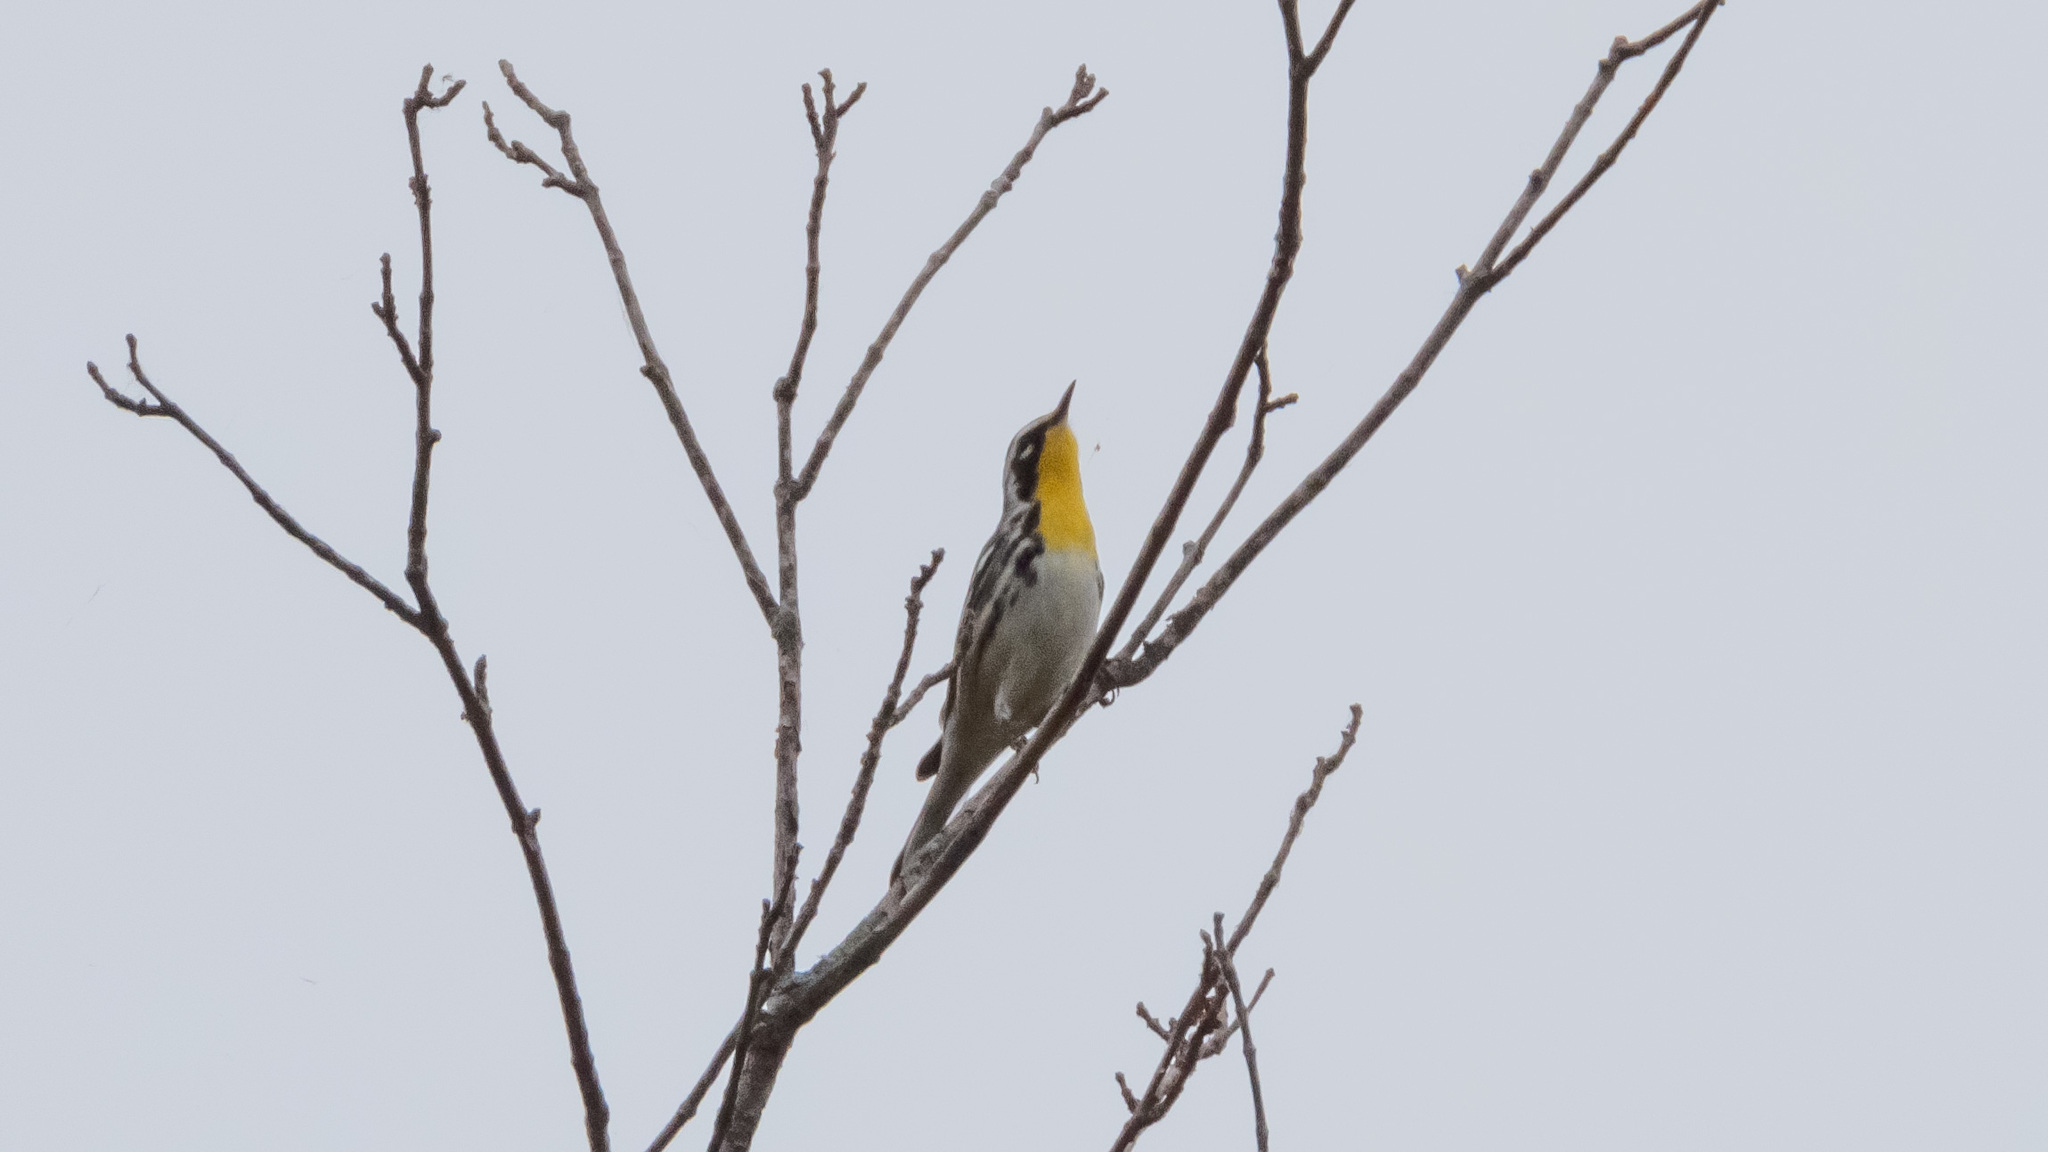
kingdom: Animalia
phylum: Chordata
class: Aves
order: Passeriformes
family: Parulidae
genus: Setophaga
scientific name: Setophaga dominica
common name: Yellow-throated warbler
